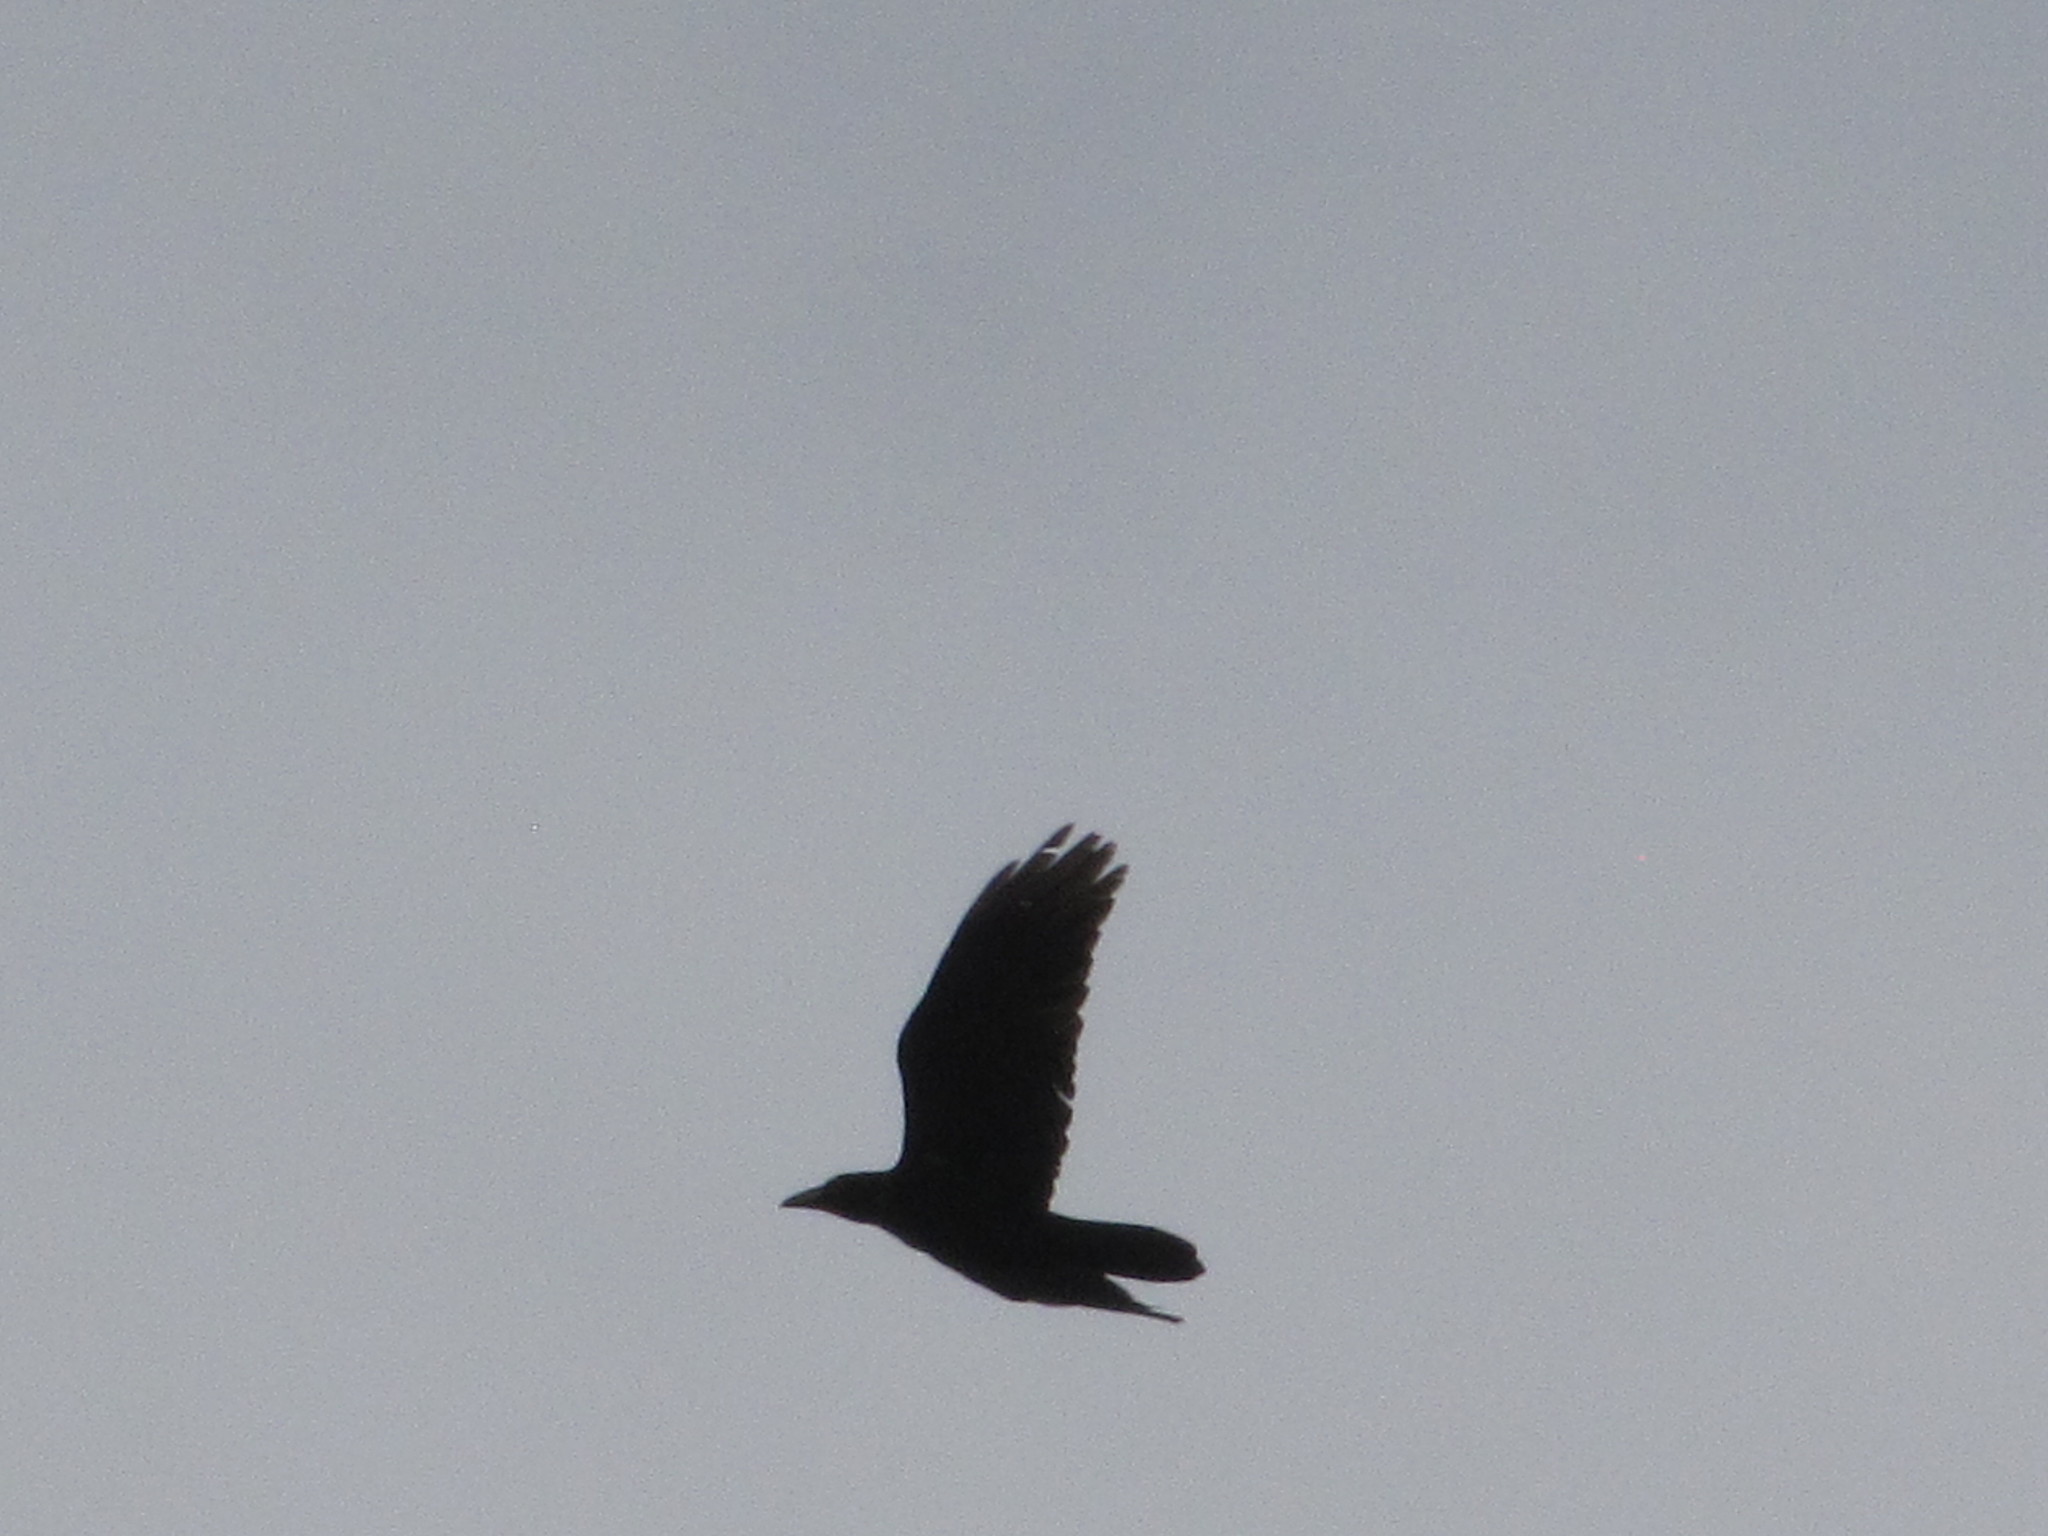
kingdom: Animalia
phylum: Chordata
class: Aves
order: Passeriformes
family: Corvidae
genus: Corvus
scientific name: Corvus corax
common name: Common raven
